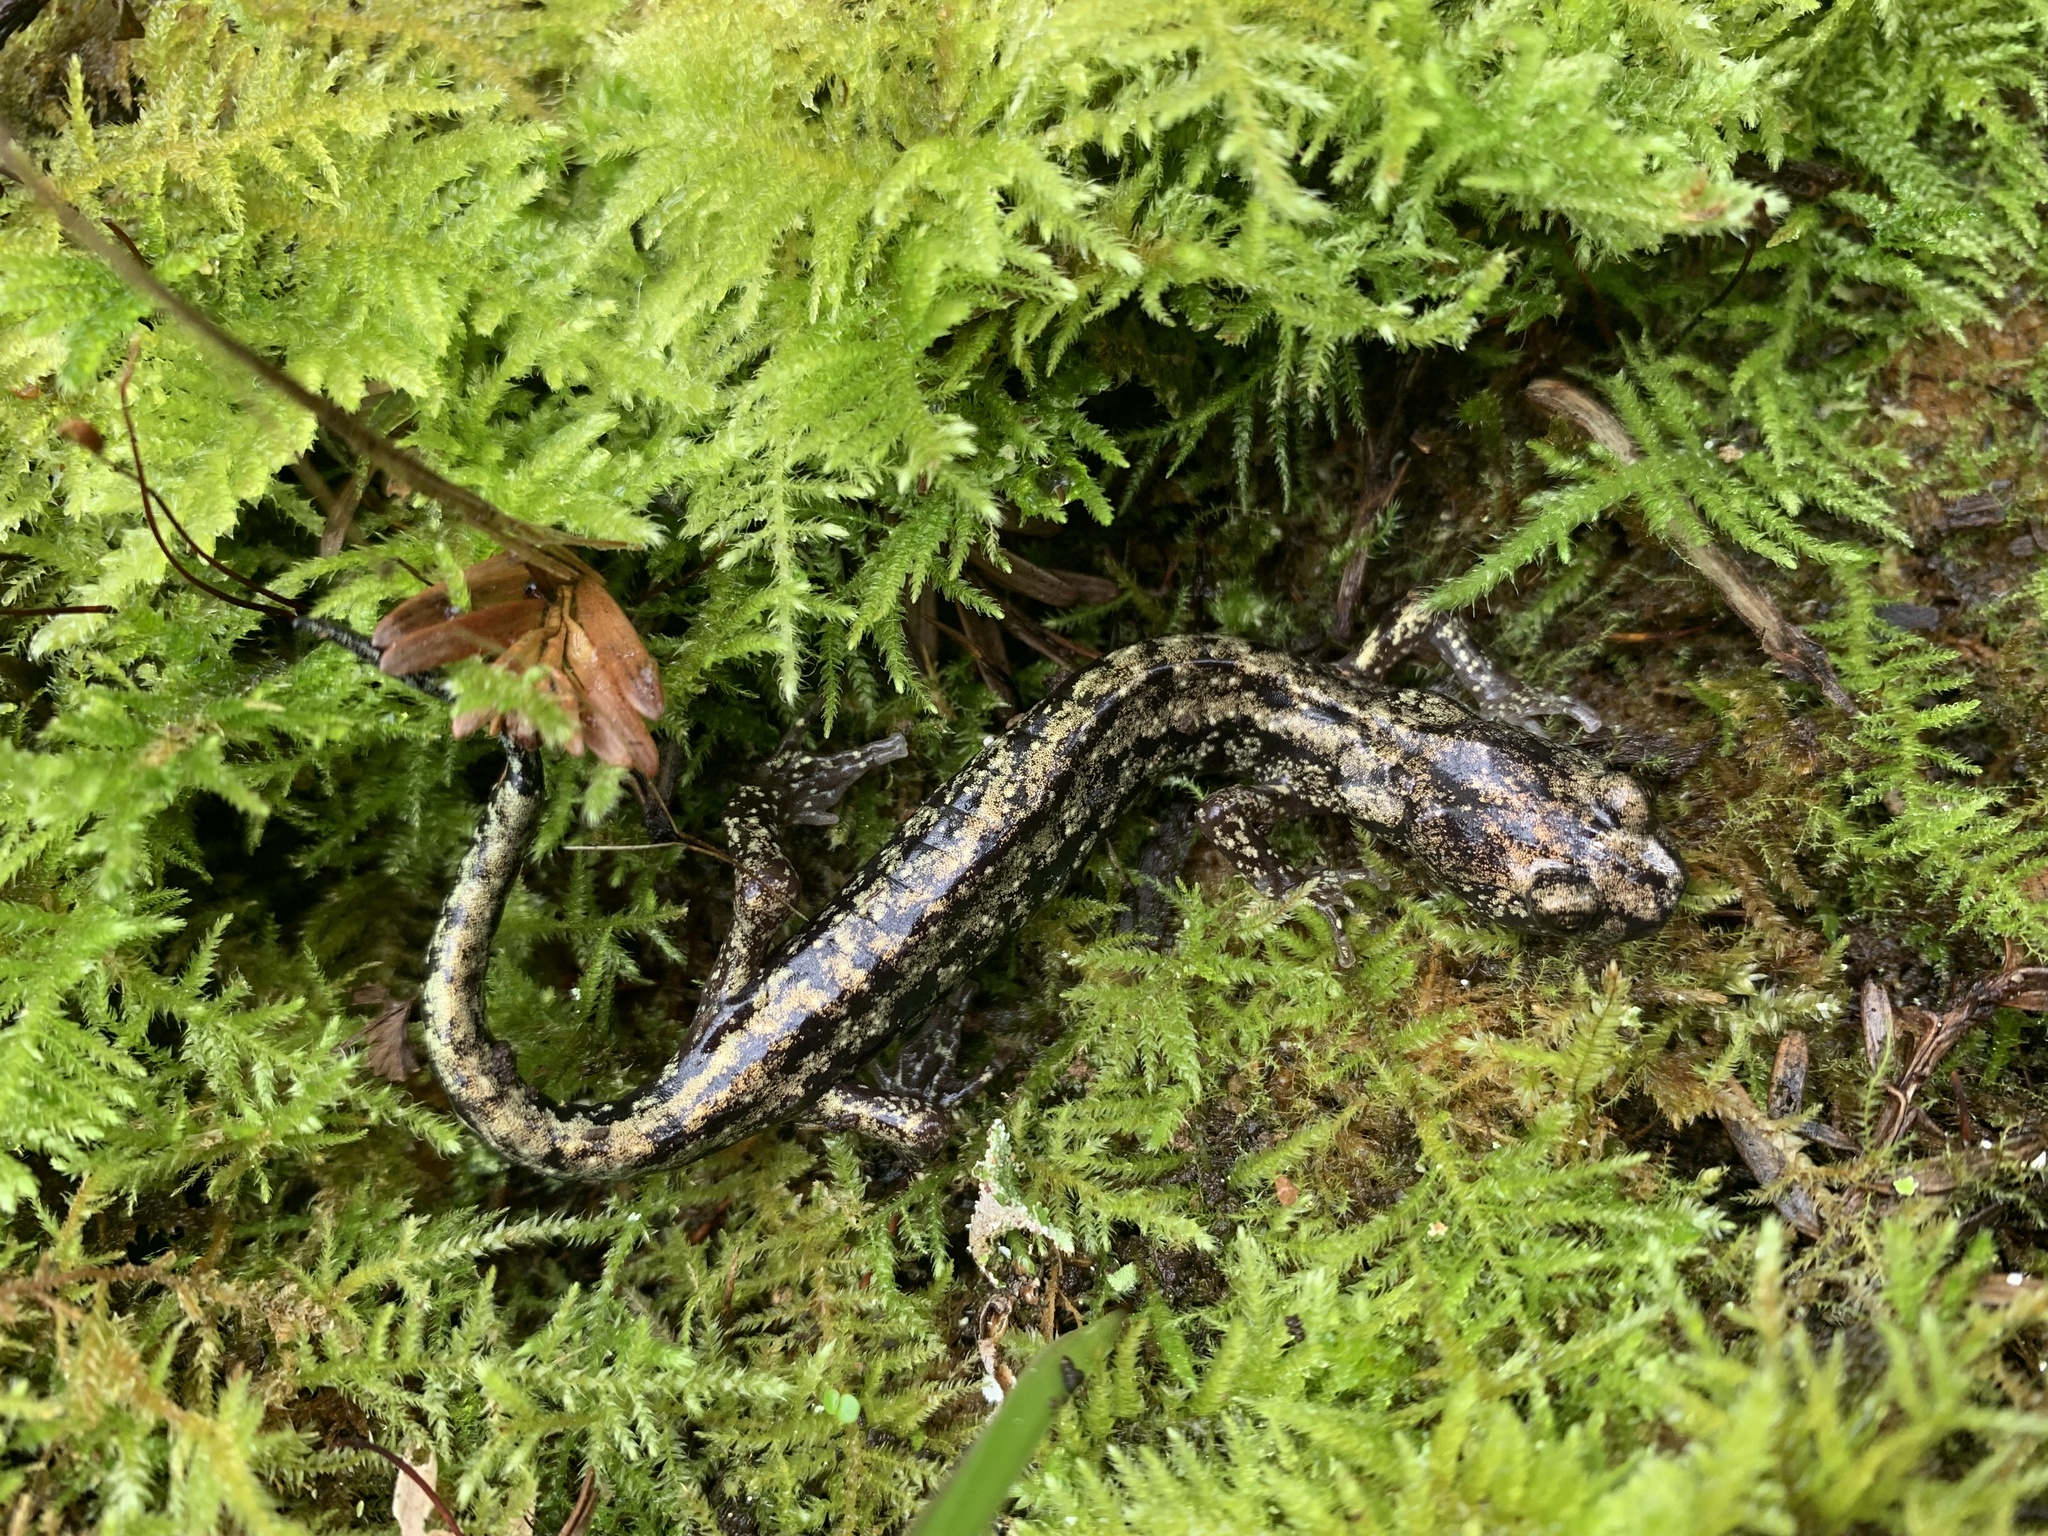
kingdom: Animalia
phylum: Chordata
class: Amphibia
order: Caudata
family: Plethodontidae
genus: Aneides
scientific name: Aneides vagrans
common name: Wandering salamander
